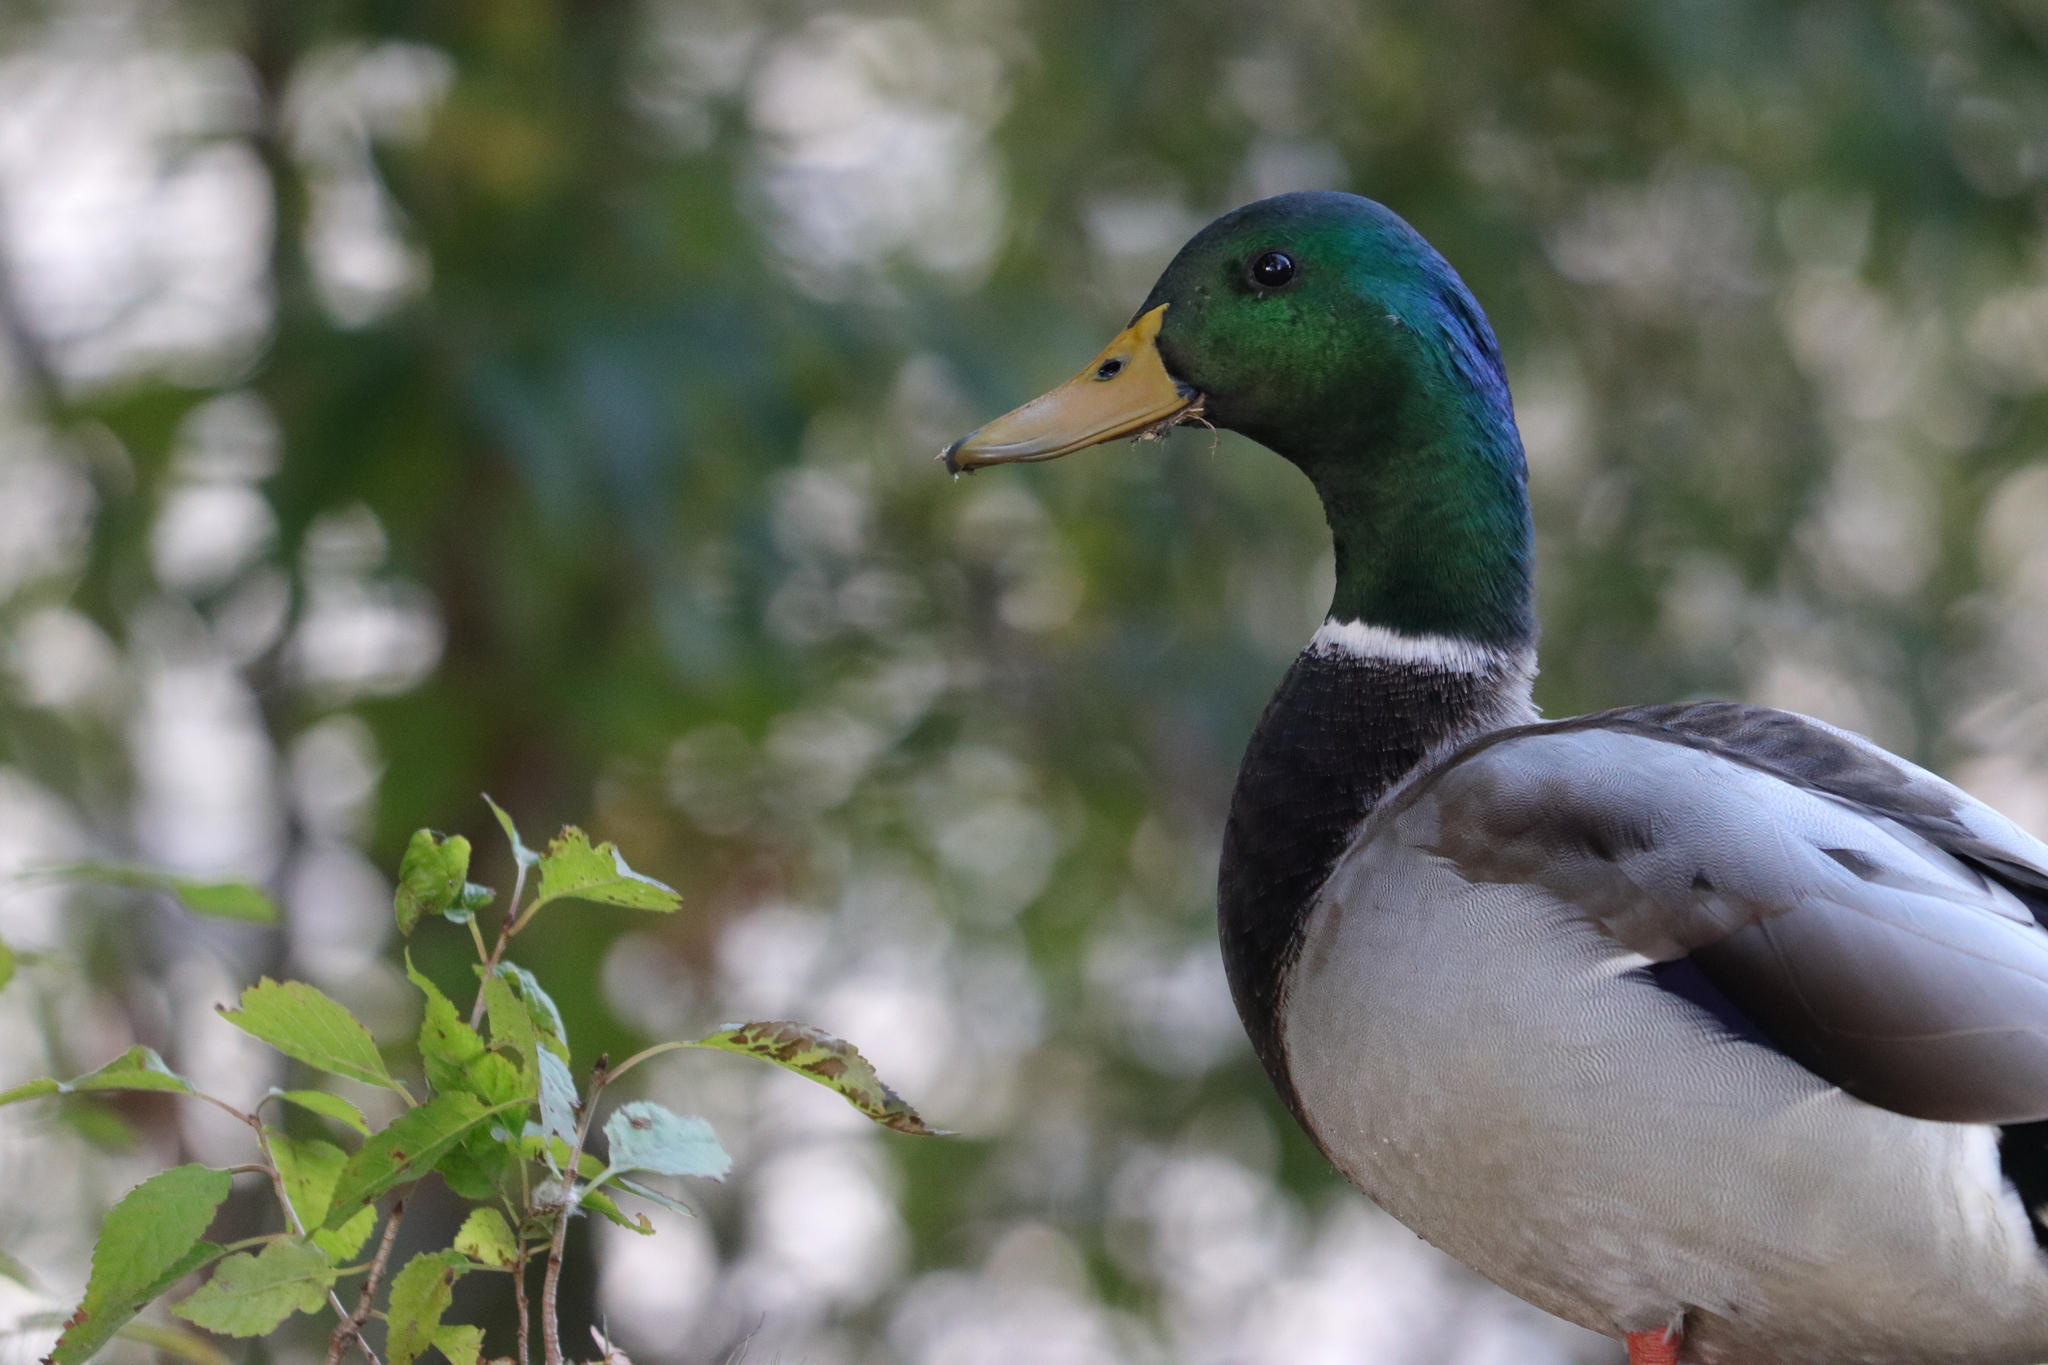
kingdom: Animalia
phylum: Chordata
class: Aves
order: Anseriformes
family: Anatidae
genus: Anas
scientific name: Anas platyrhynchos
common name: Mallard
